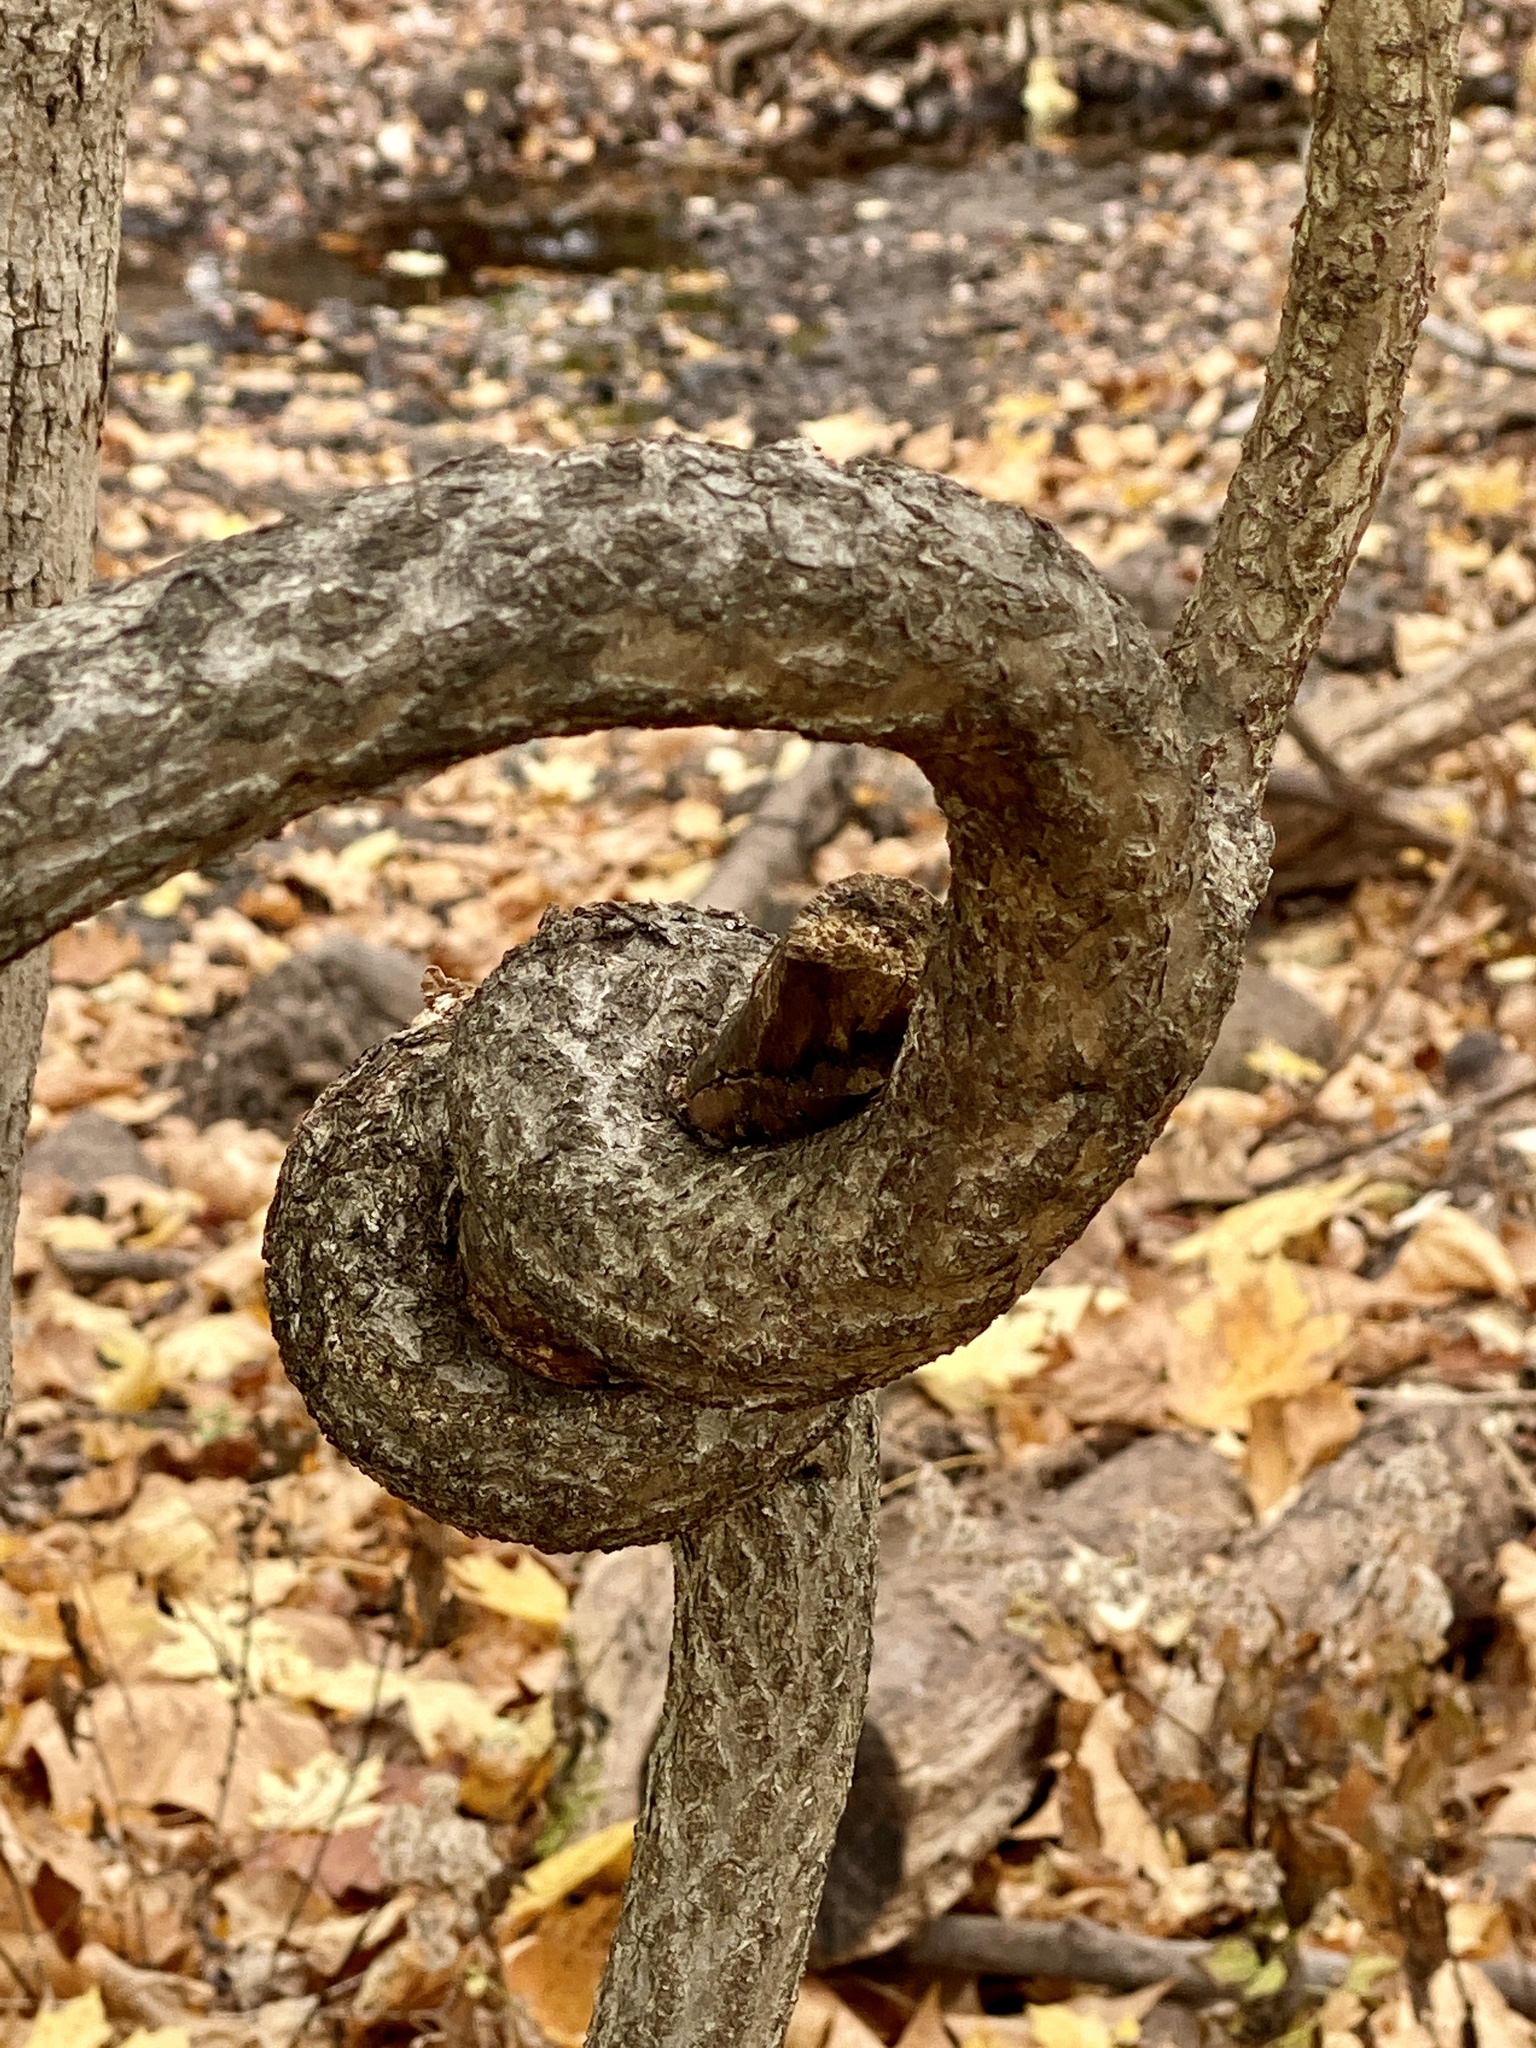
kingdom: Plantae
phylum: Tracheophyta
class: Magnoliopsida
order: Celastrales
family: Celastraceae
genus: Celastrus
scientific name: Celastrus orbiculatus
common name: Oriental bittersweet
